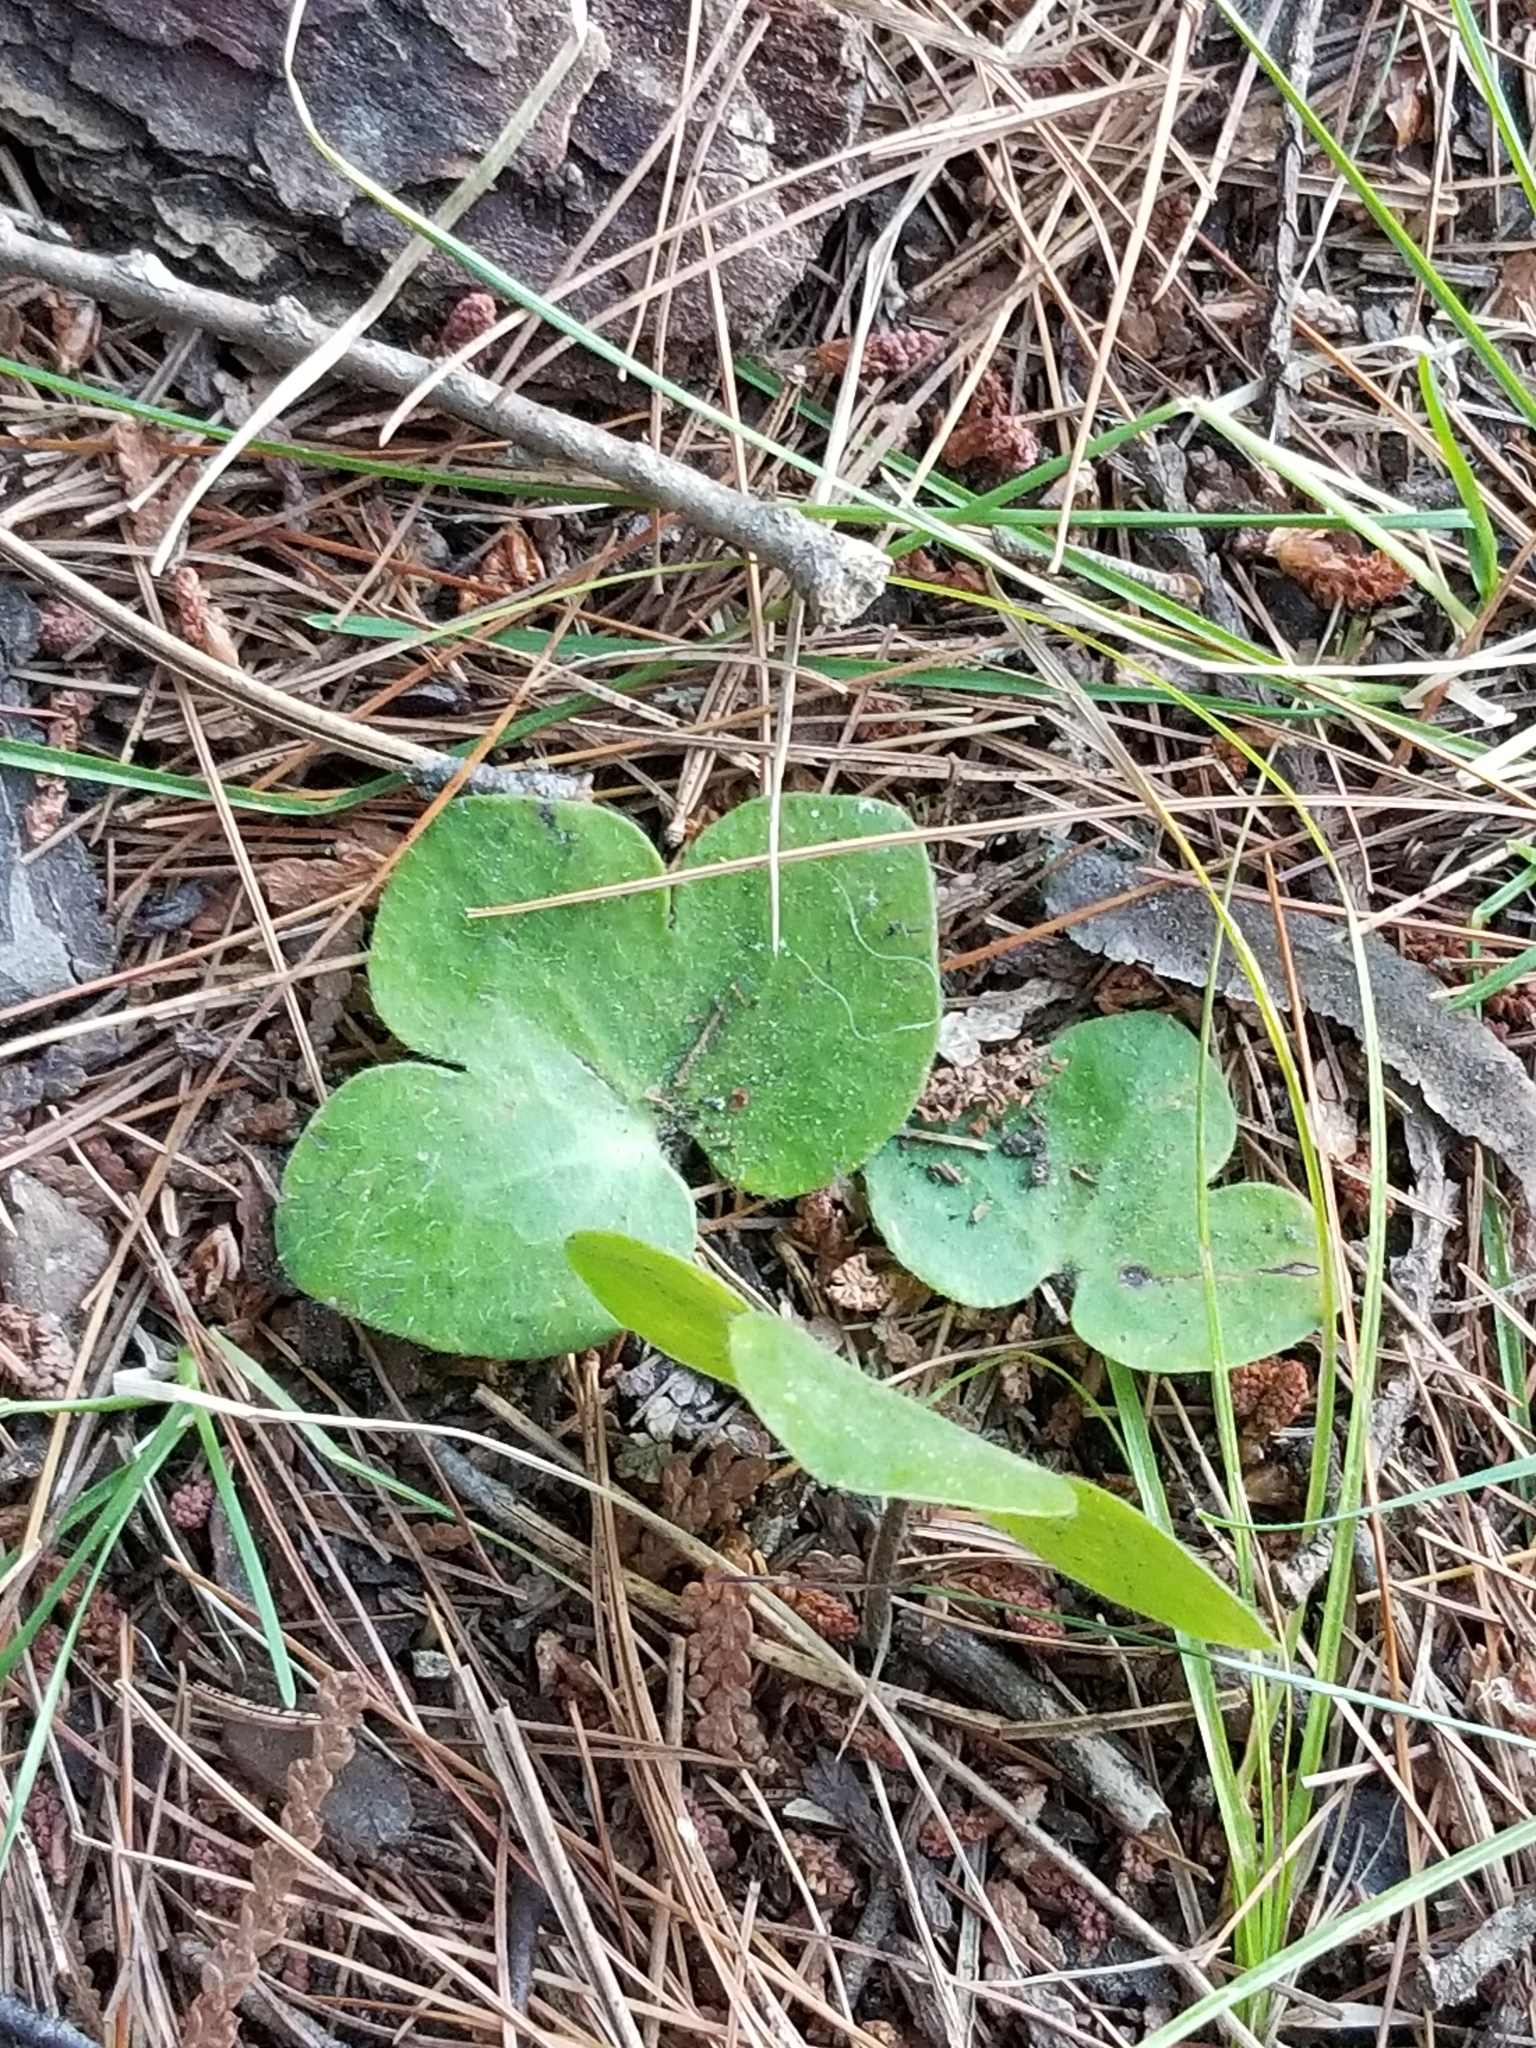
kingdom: Plantae
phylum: Tracheophyta
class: Magnoliopsida
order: Ranunculales
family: Ranunculaceae
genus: Hepatica
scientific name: Hepatica americana
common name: American hepatica
